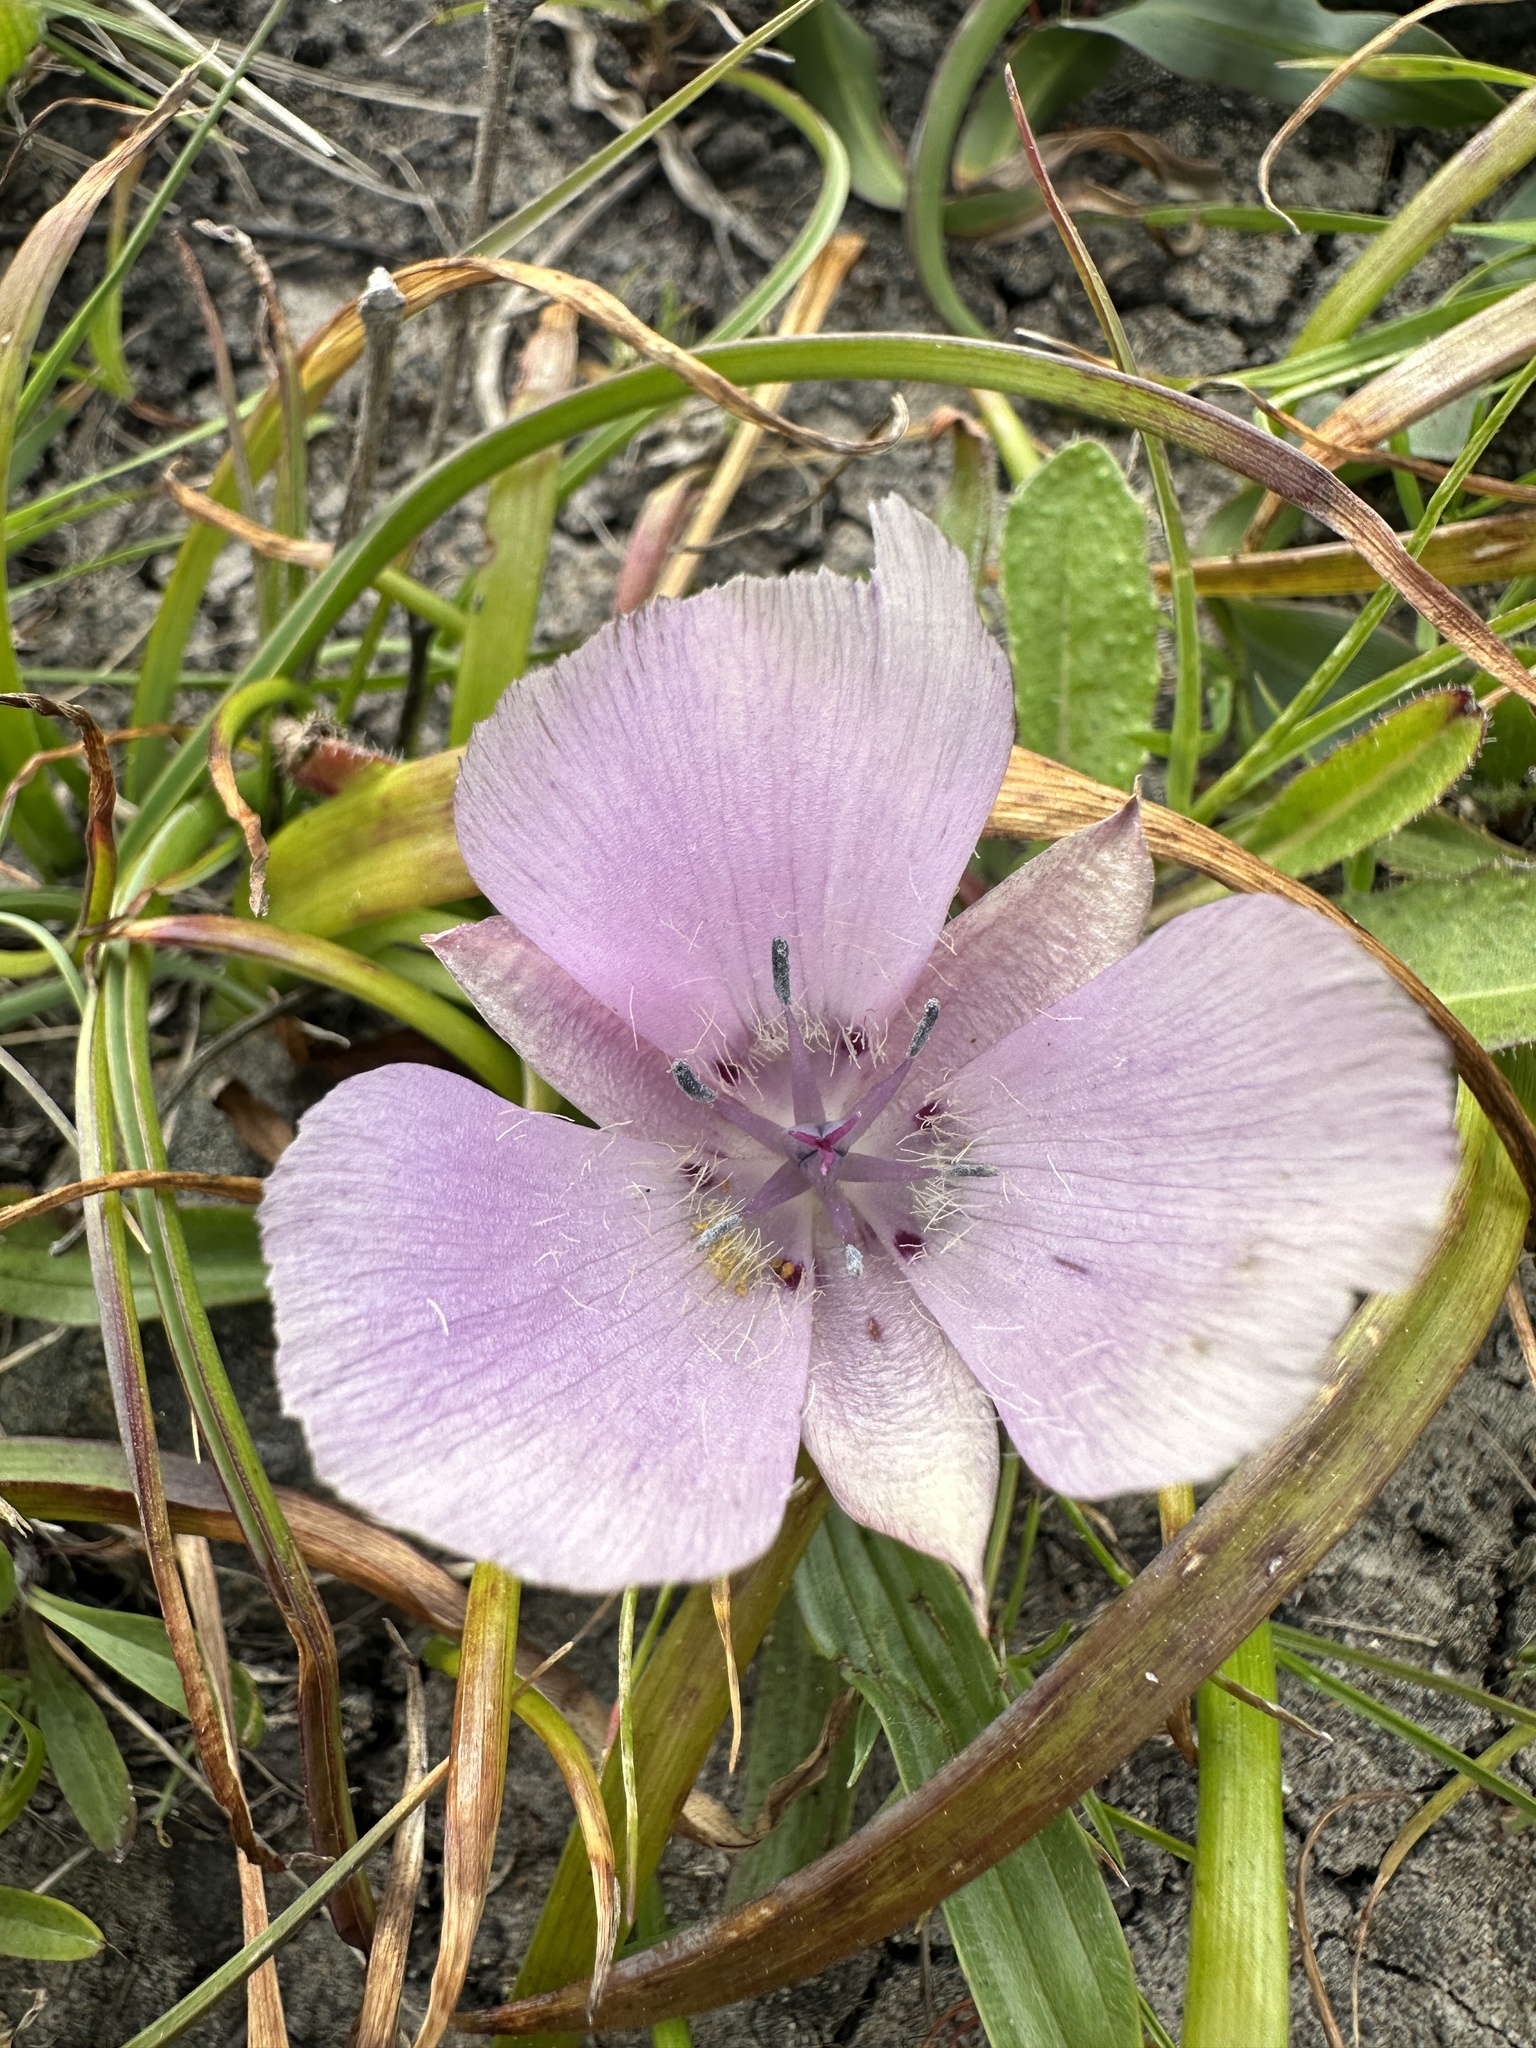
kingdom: Plantae
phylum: Tracheophyta
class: Liliopsida
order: Liliales
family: Liliaceae
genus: Calochortus
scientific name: Calochortus uniflorus
